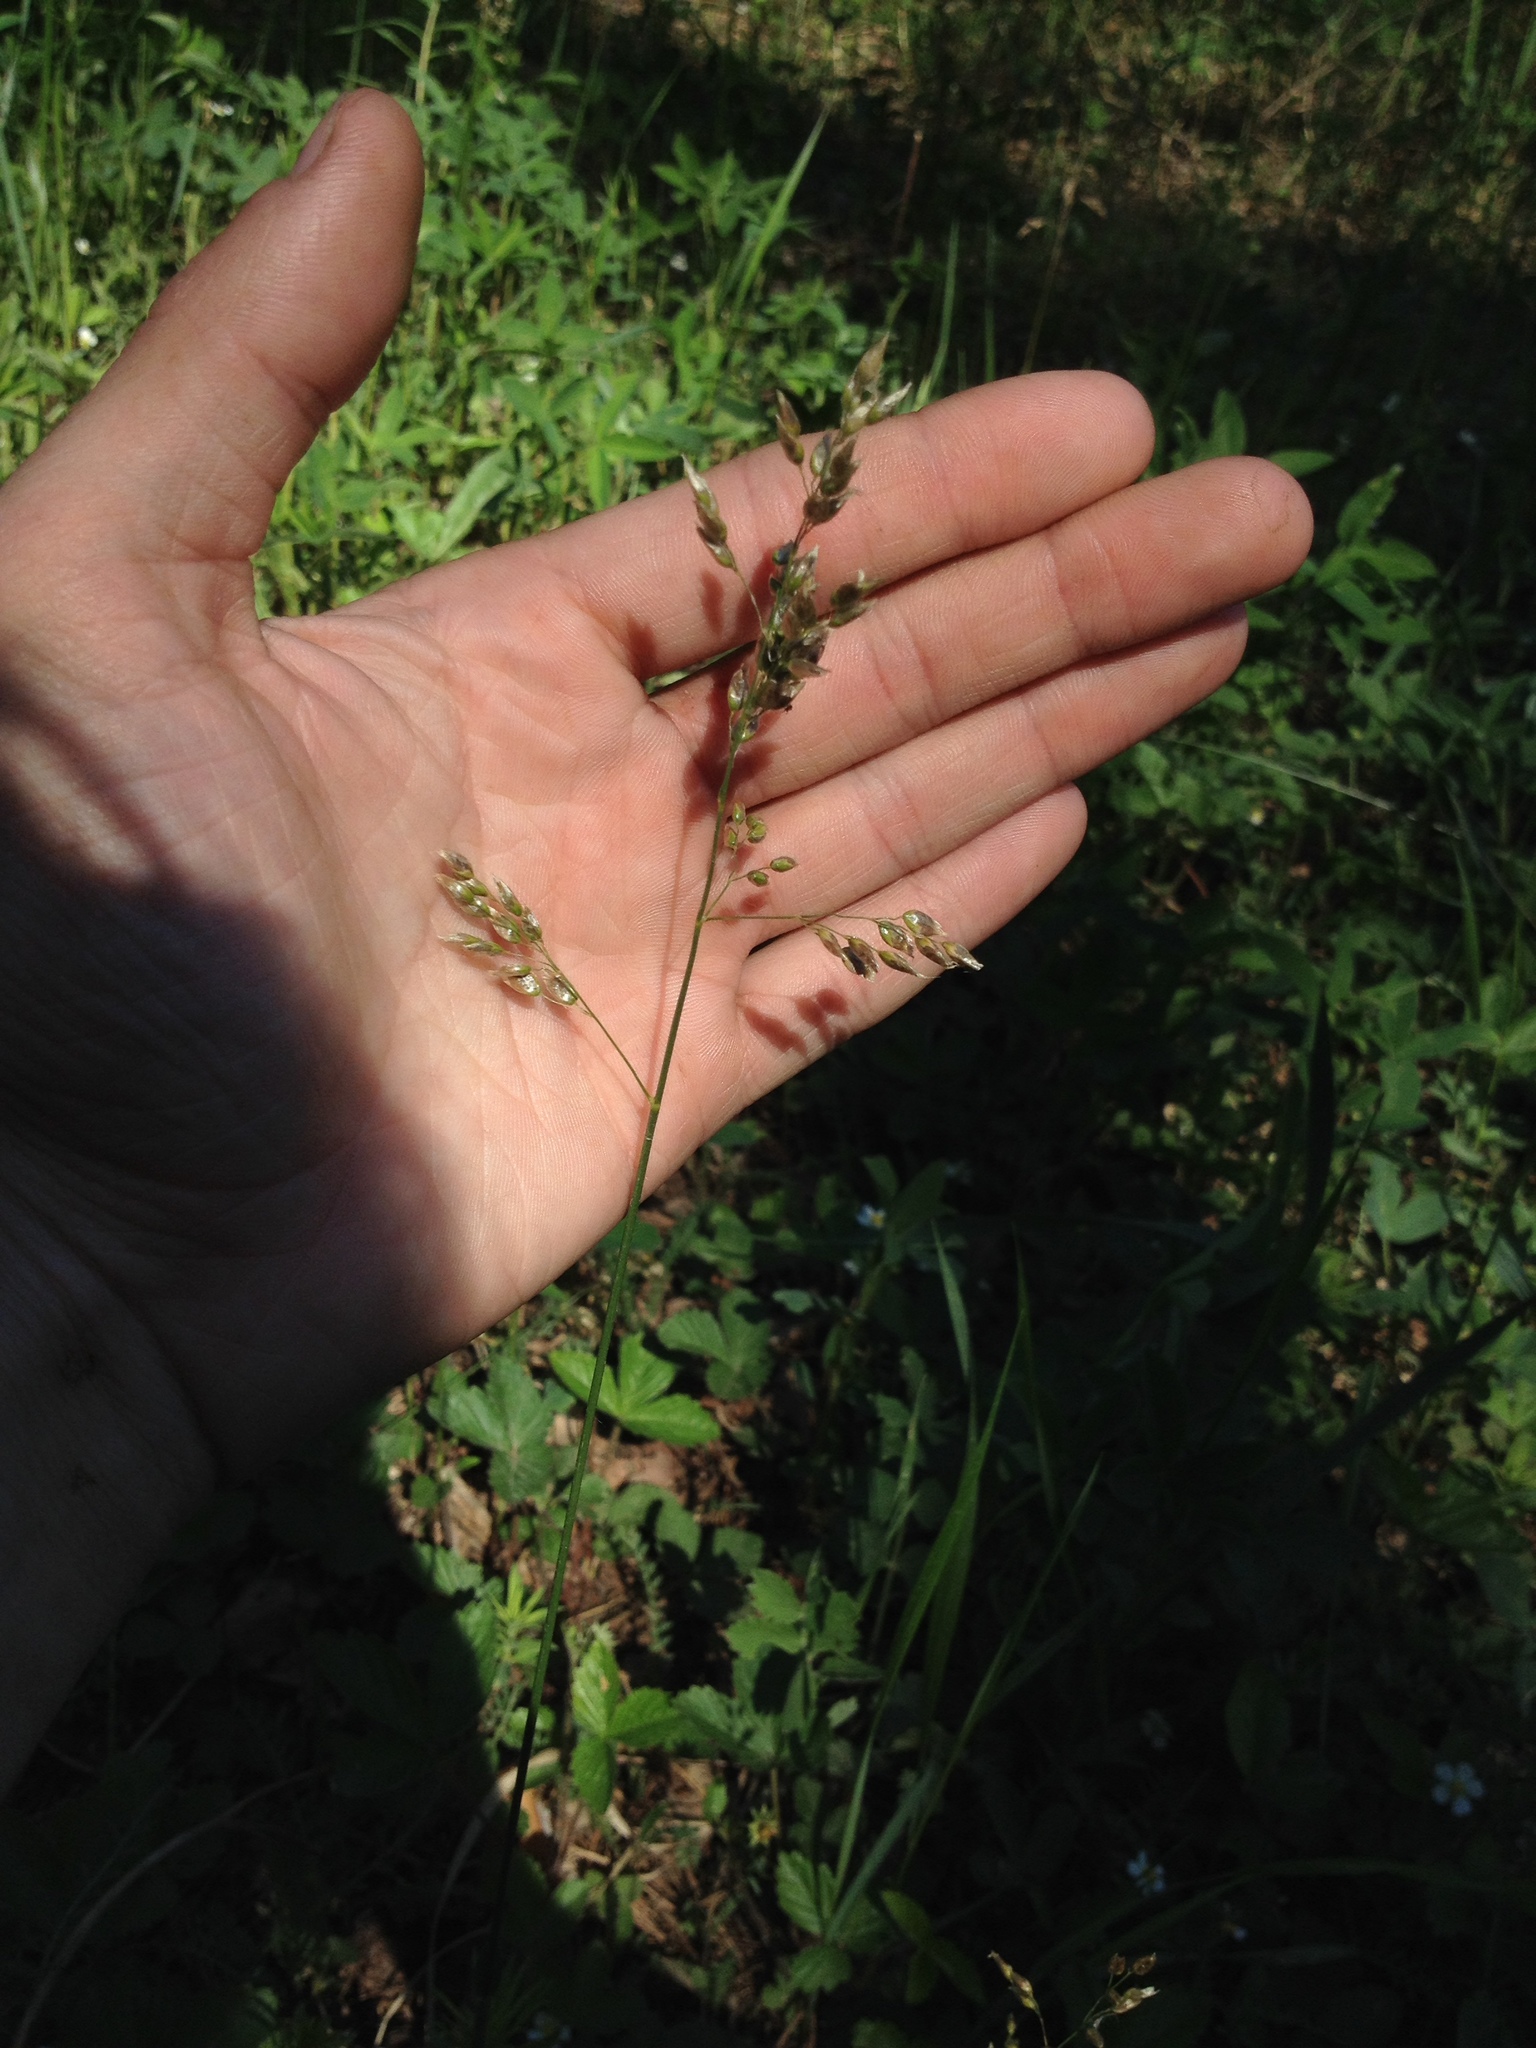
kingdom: Plantae
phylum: Tracheophyta
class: Liliopsida
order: Poales
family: Poaceae
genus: Anthoxanthum
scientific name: Anthoxanthum nitens
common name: Holy grass
